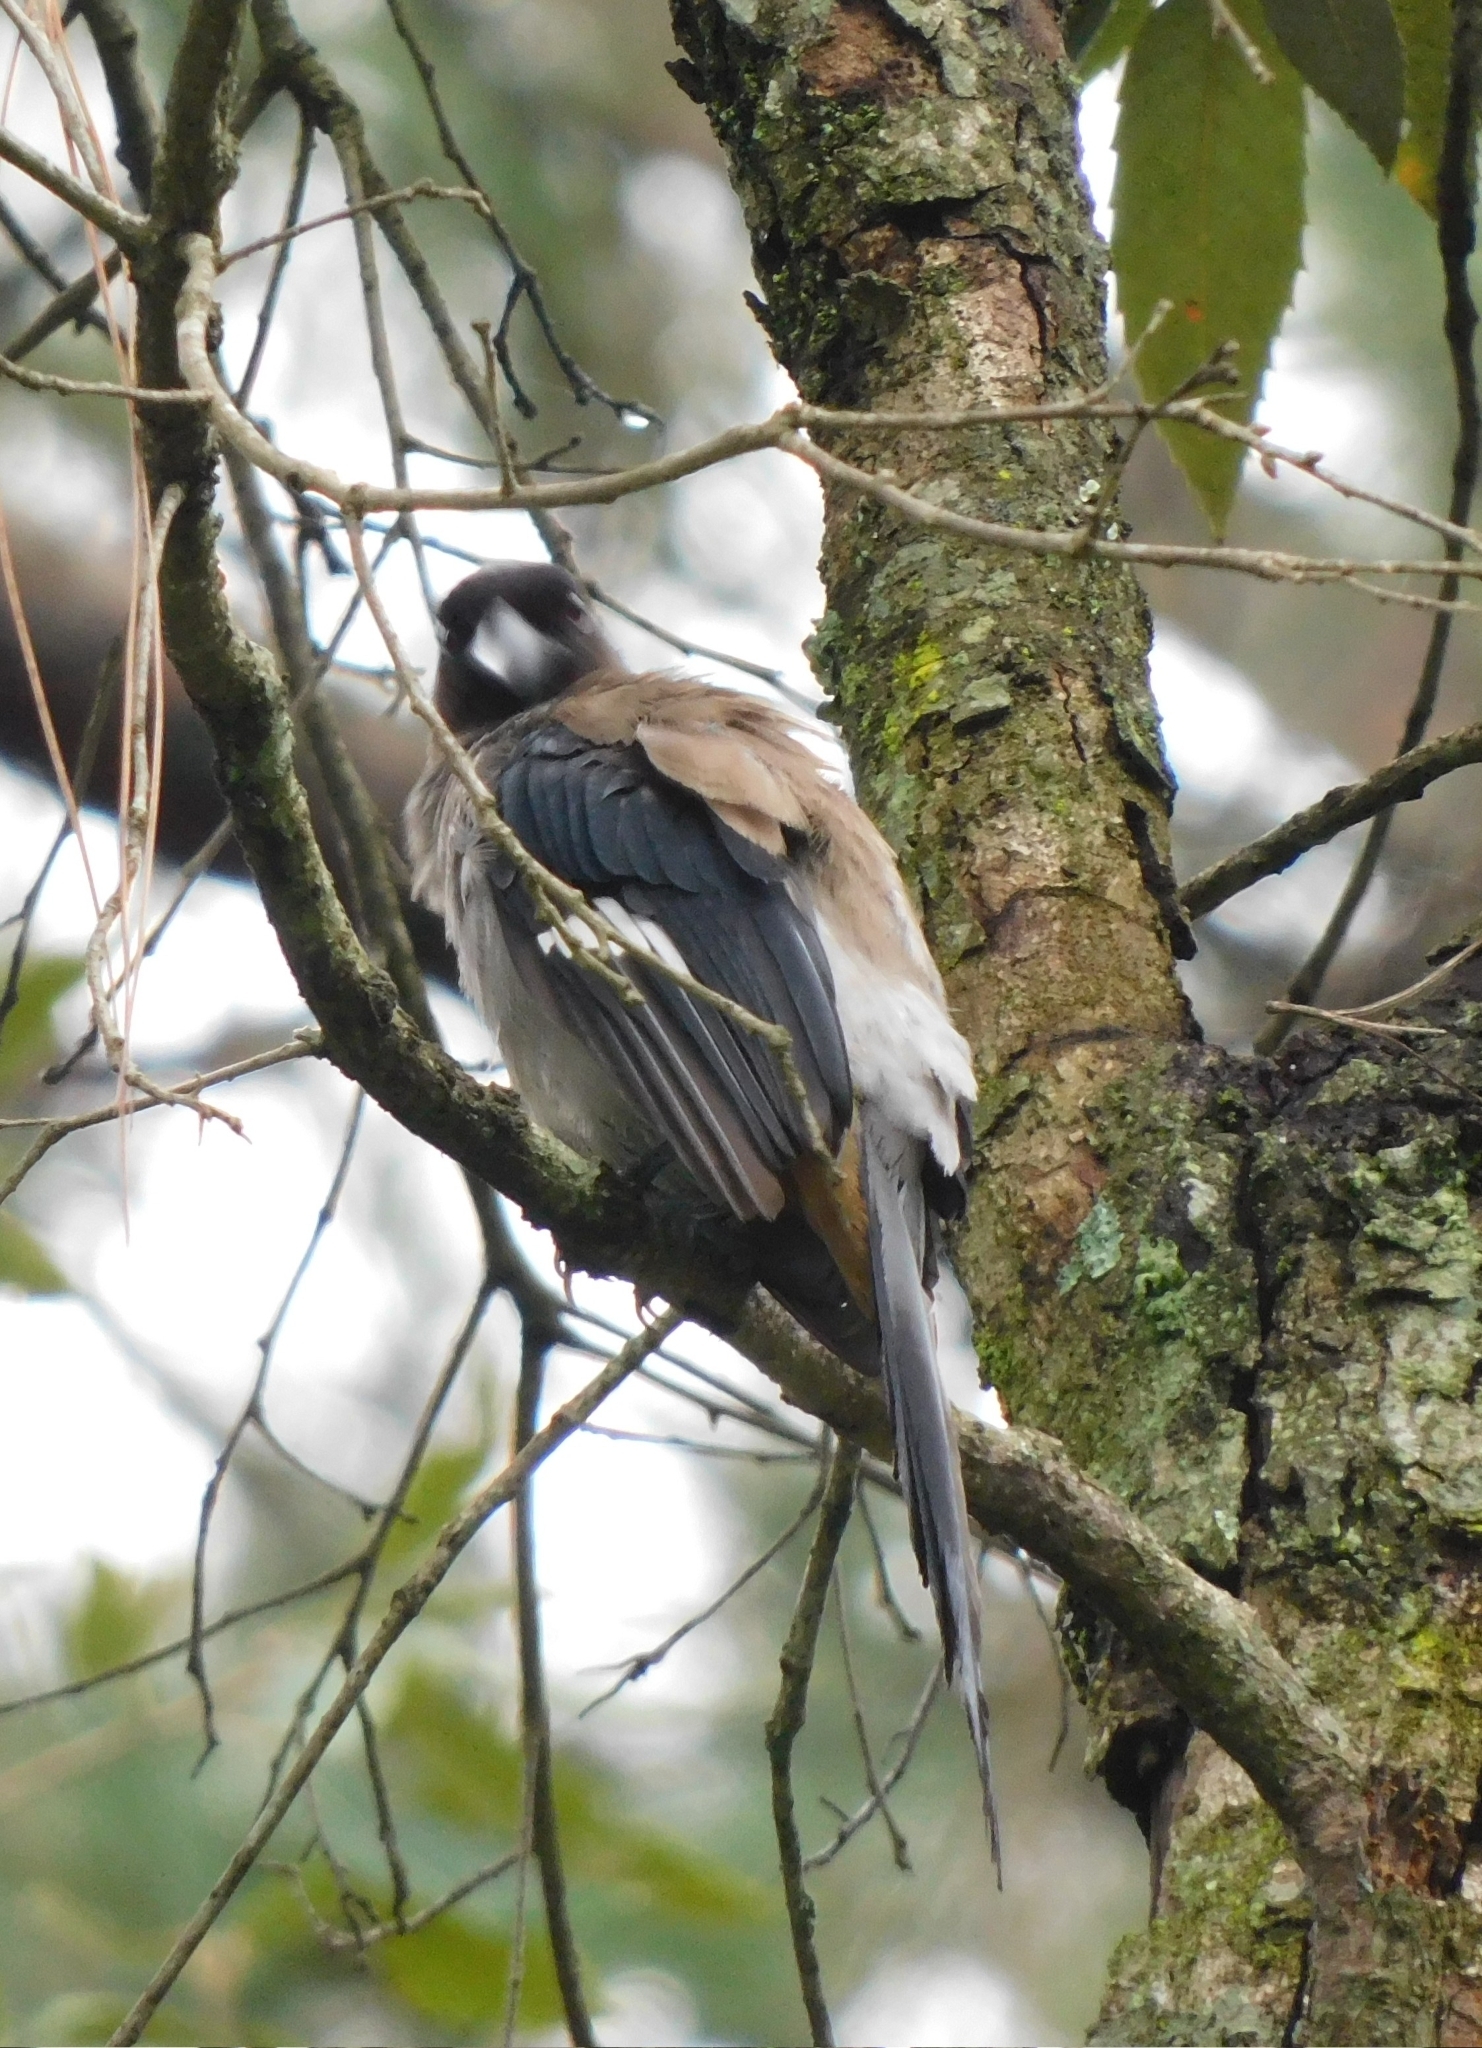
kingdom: Animalia
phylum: Chordata
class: Aves
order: Passeriformes
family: Corvidae
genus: Dendrocitta
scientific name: Dendrocitta formosae
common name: Grey treepie
